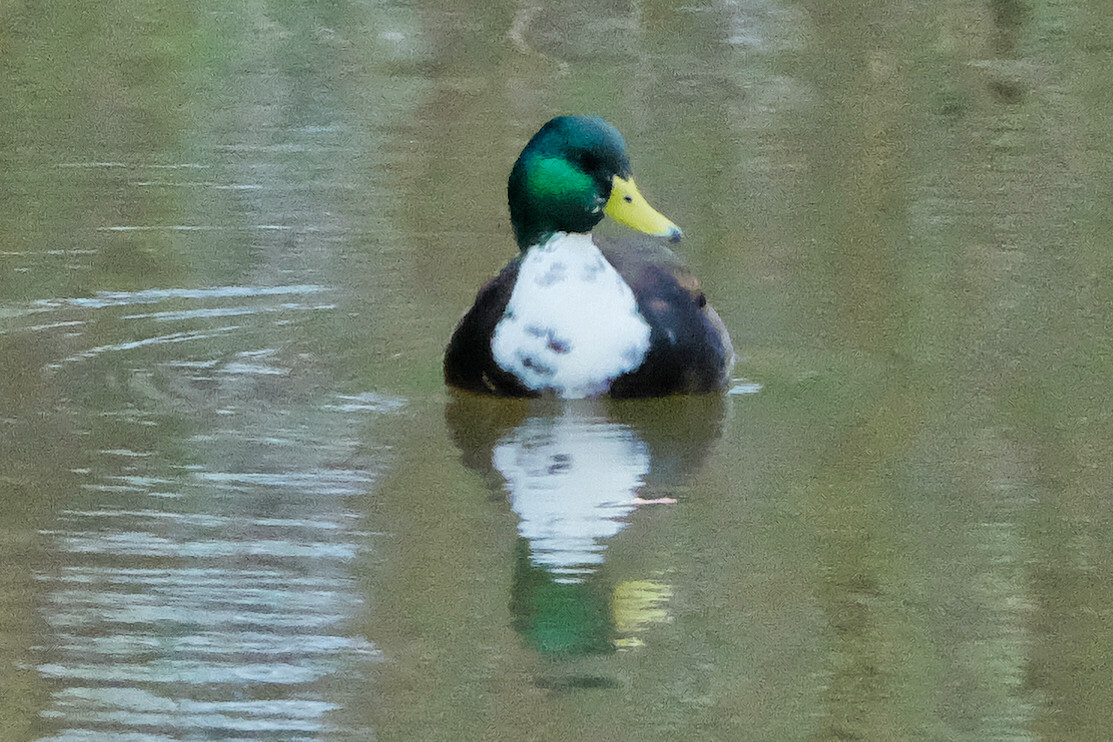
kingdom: Animalia
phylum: Chordata
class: Aves
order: Anseriformes
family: Anatidae
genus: Anas
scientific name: Anas platyrhynchos
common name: Mallard
